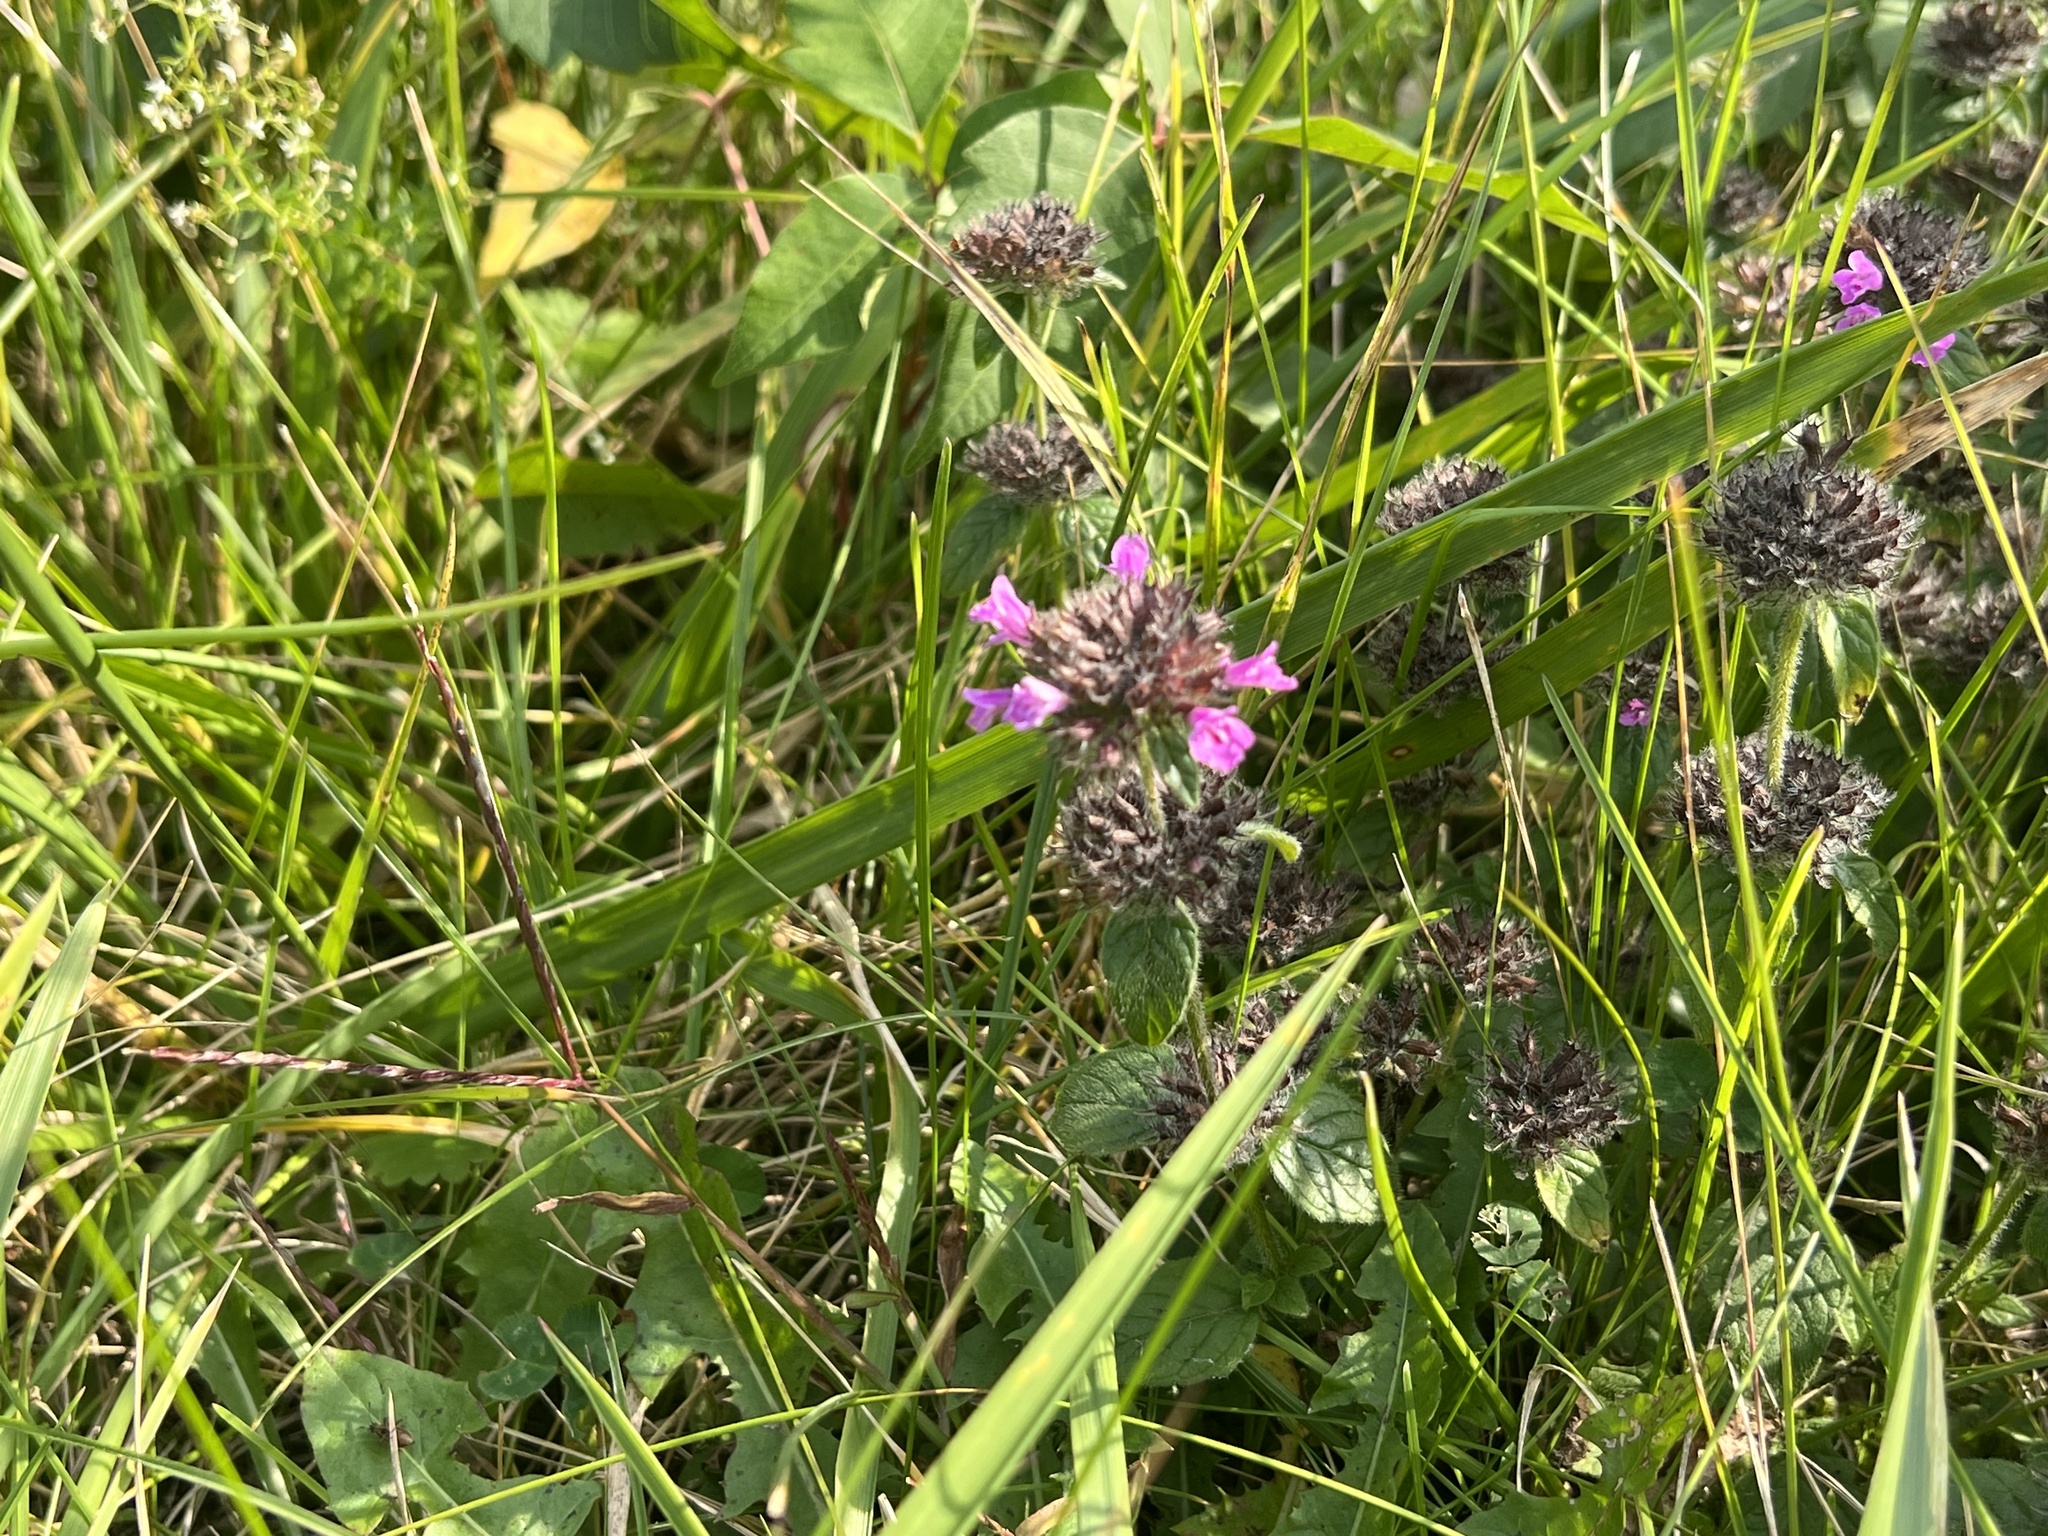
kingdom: Plantae
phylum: Tracheophyta
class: Magnoliopsida
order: Lamiales
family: Lamiaceae
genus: Clinopodium
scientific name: Clinopodium vulgare
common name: Wild basil
